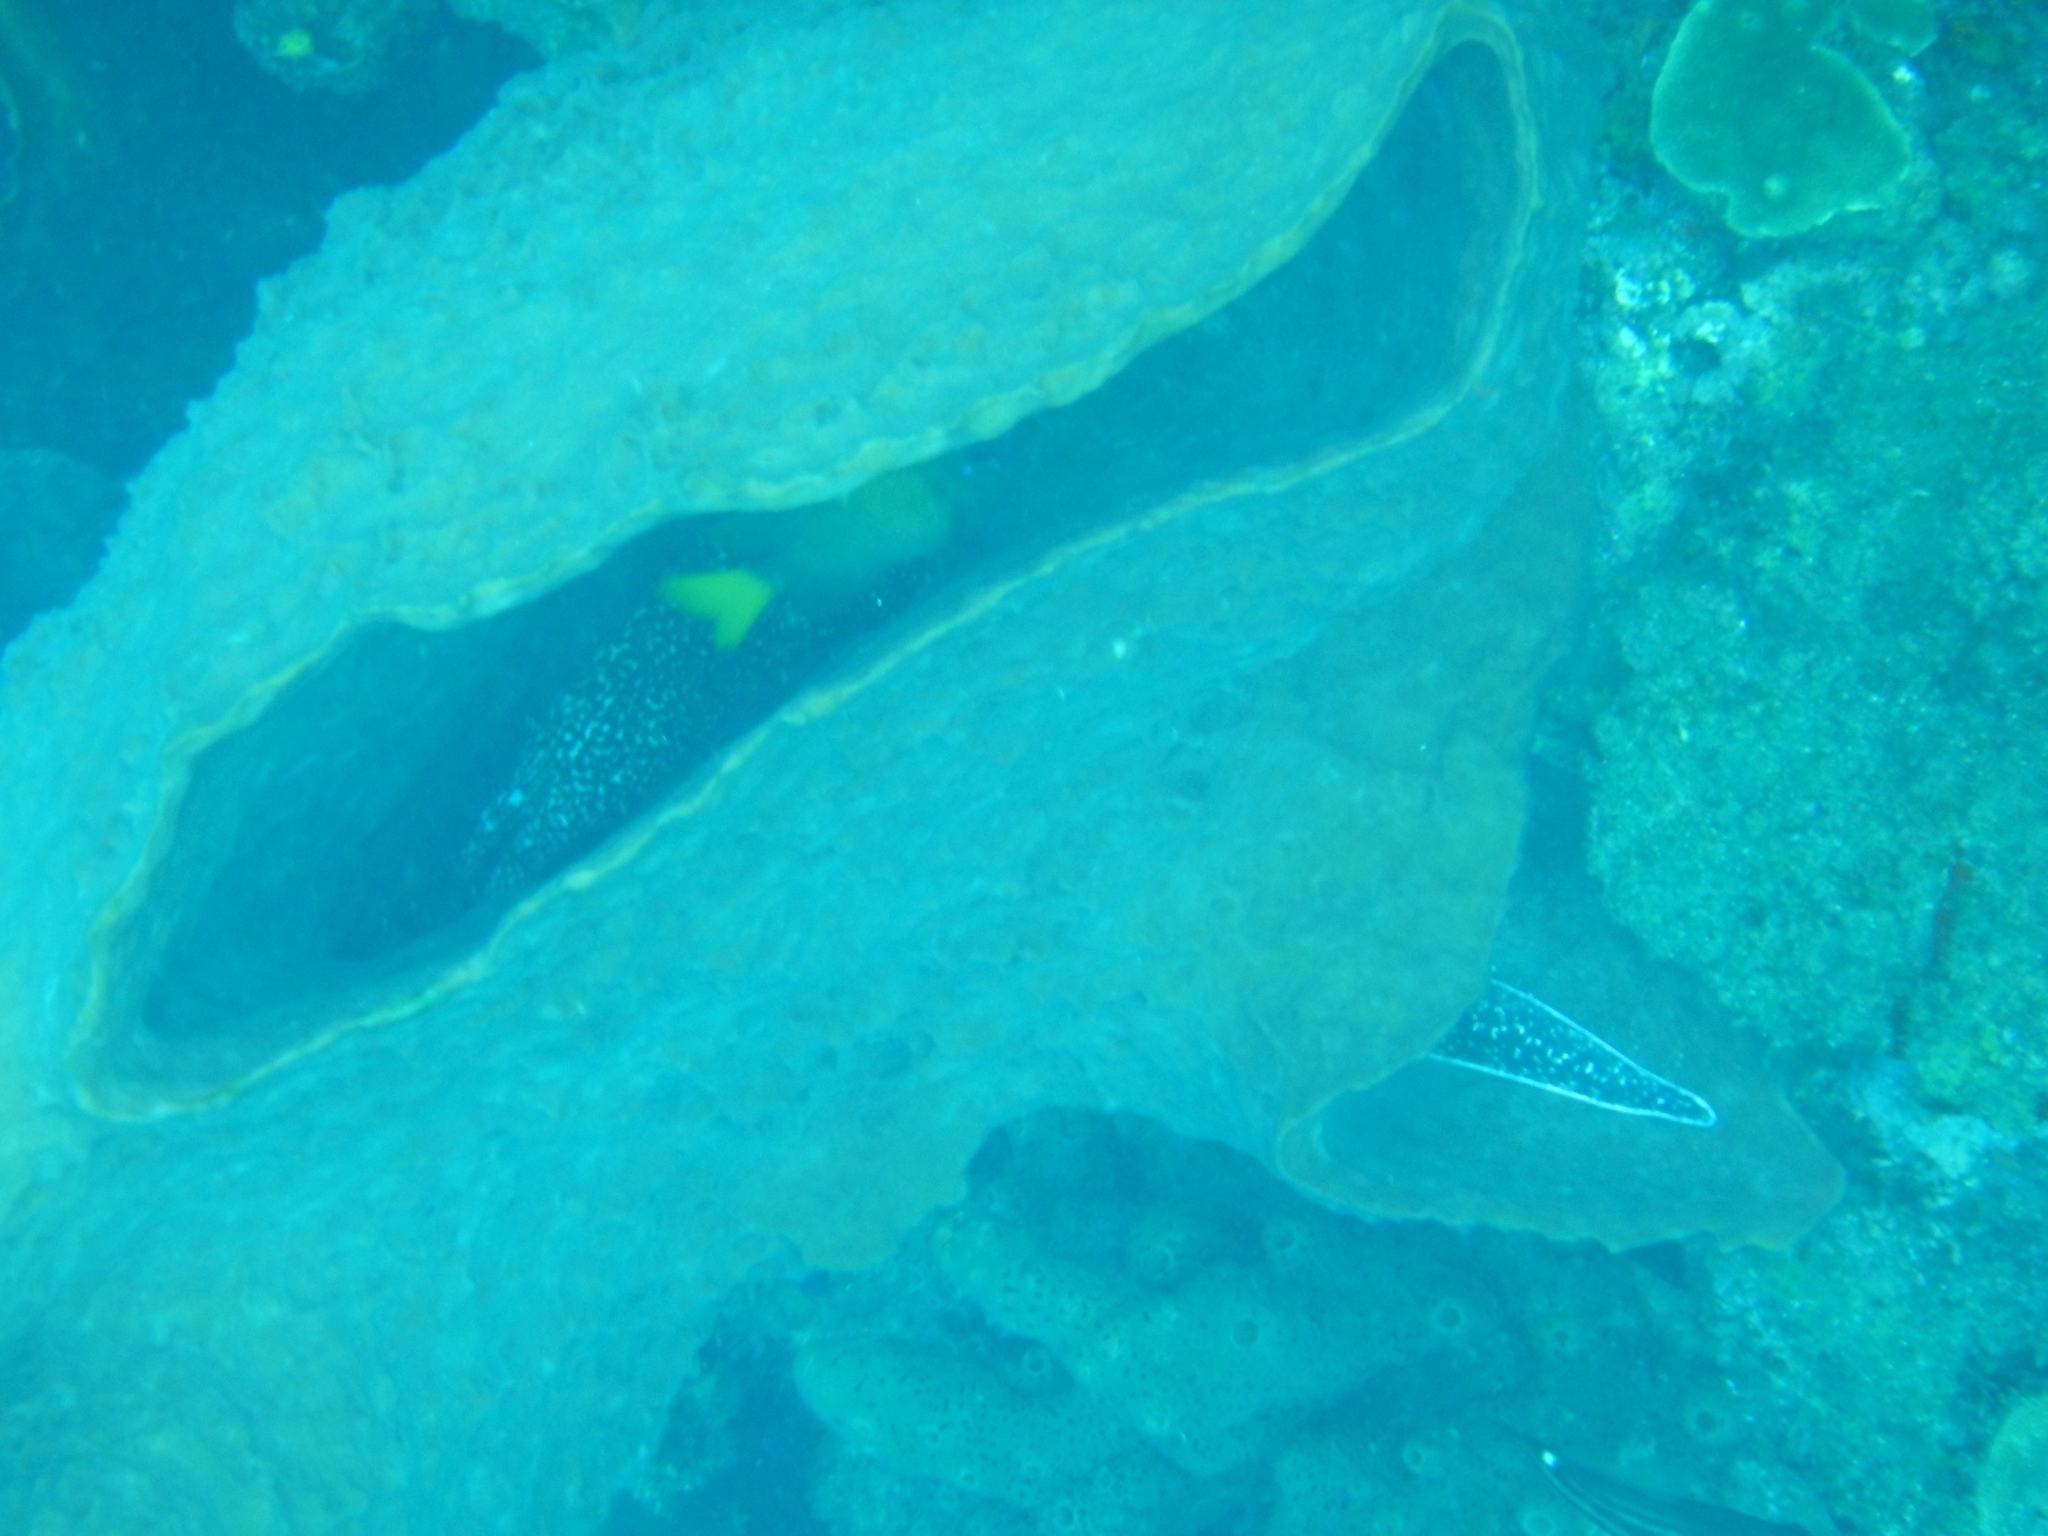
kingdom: Animalia
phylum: Chordata
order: Anguilliformes
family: Muraenidae
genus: Gymnothorax
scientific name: Gymnothorax moringa
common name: Spotted moray
